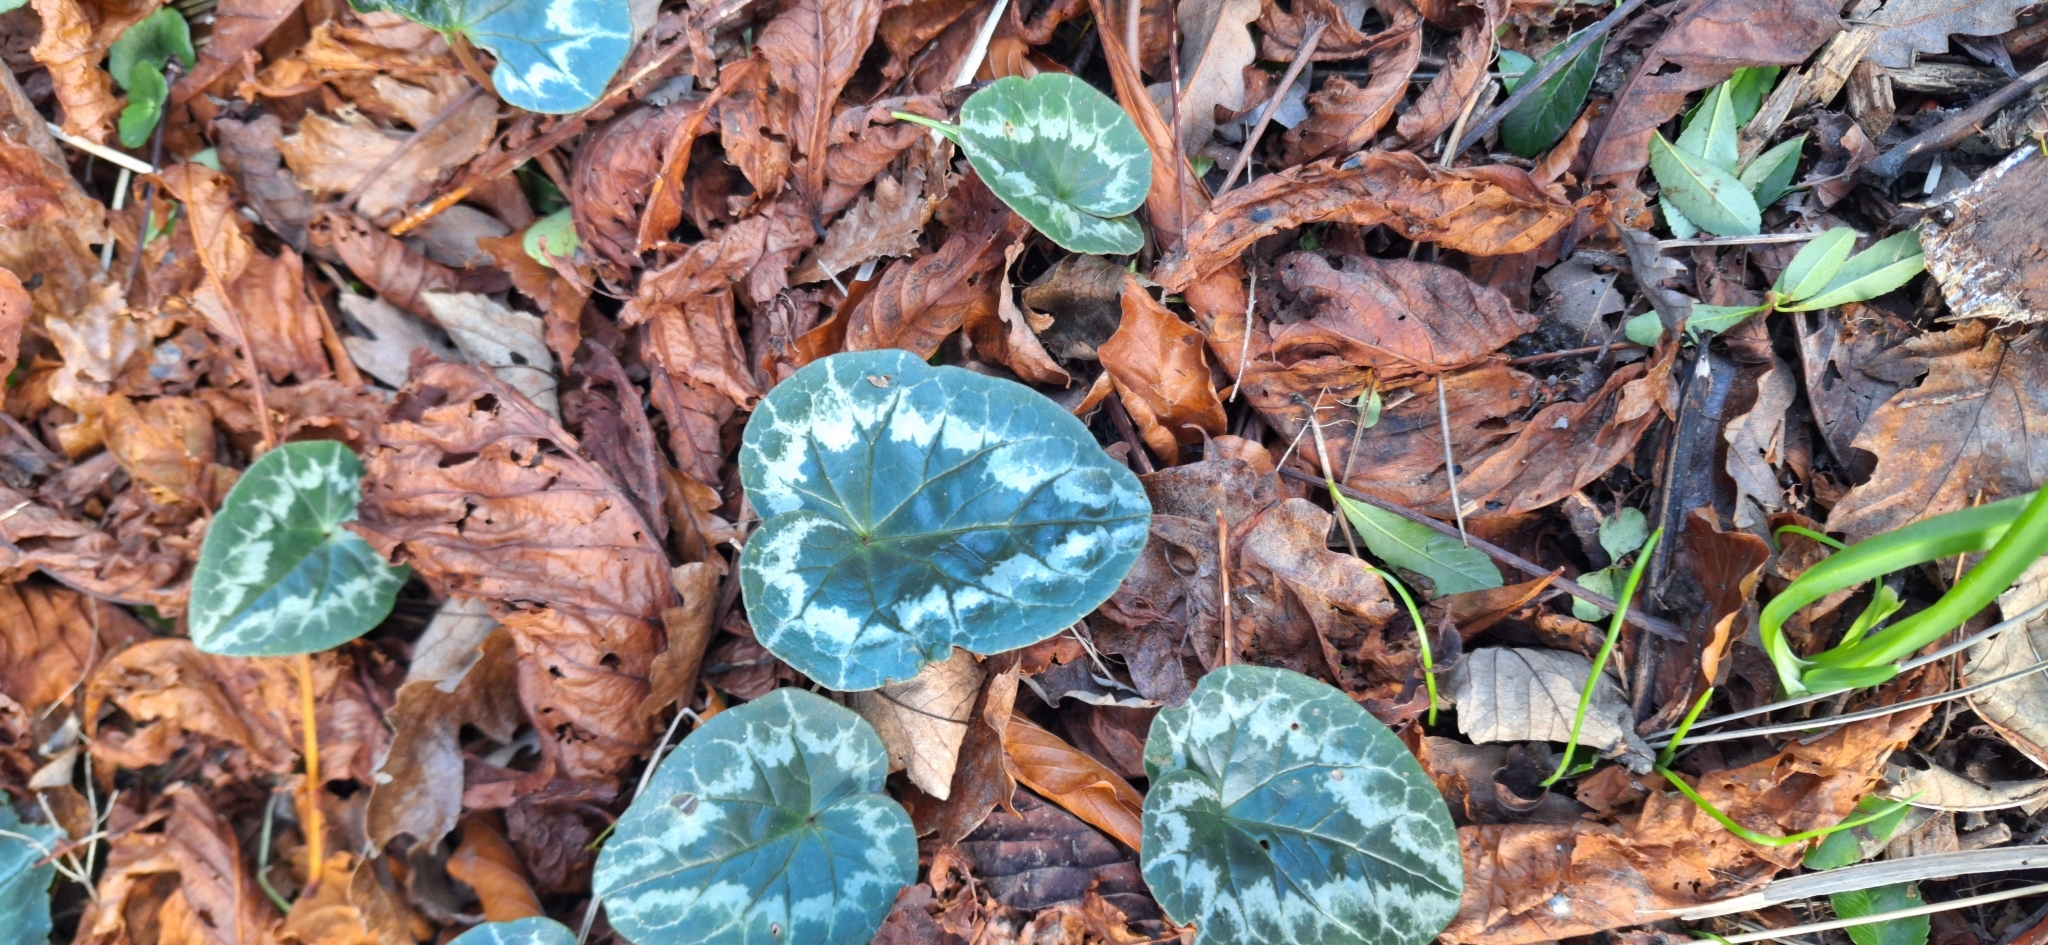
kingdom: Plantae
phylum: Tracheophyta
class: Magnoliopsida
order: Ericales
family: Primulaceae
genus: Cyclamen
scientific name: Cyclamen hederifolium
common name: Sowbread
